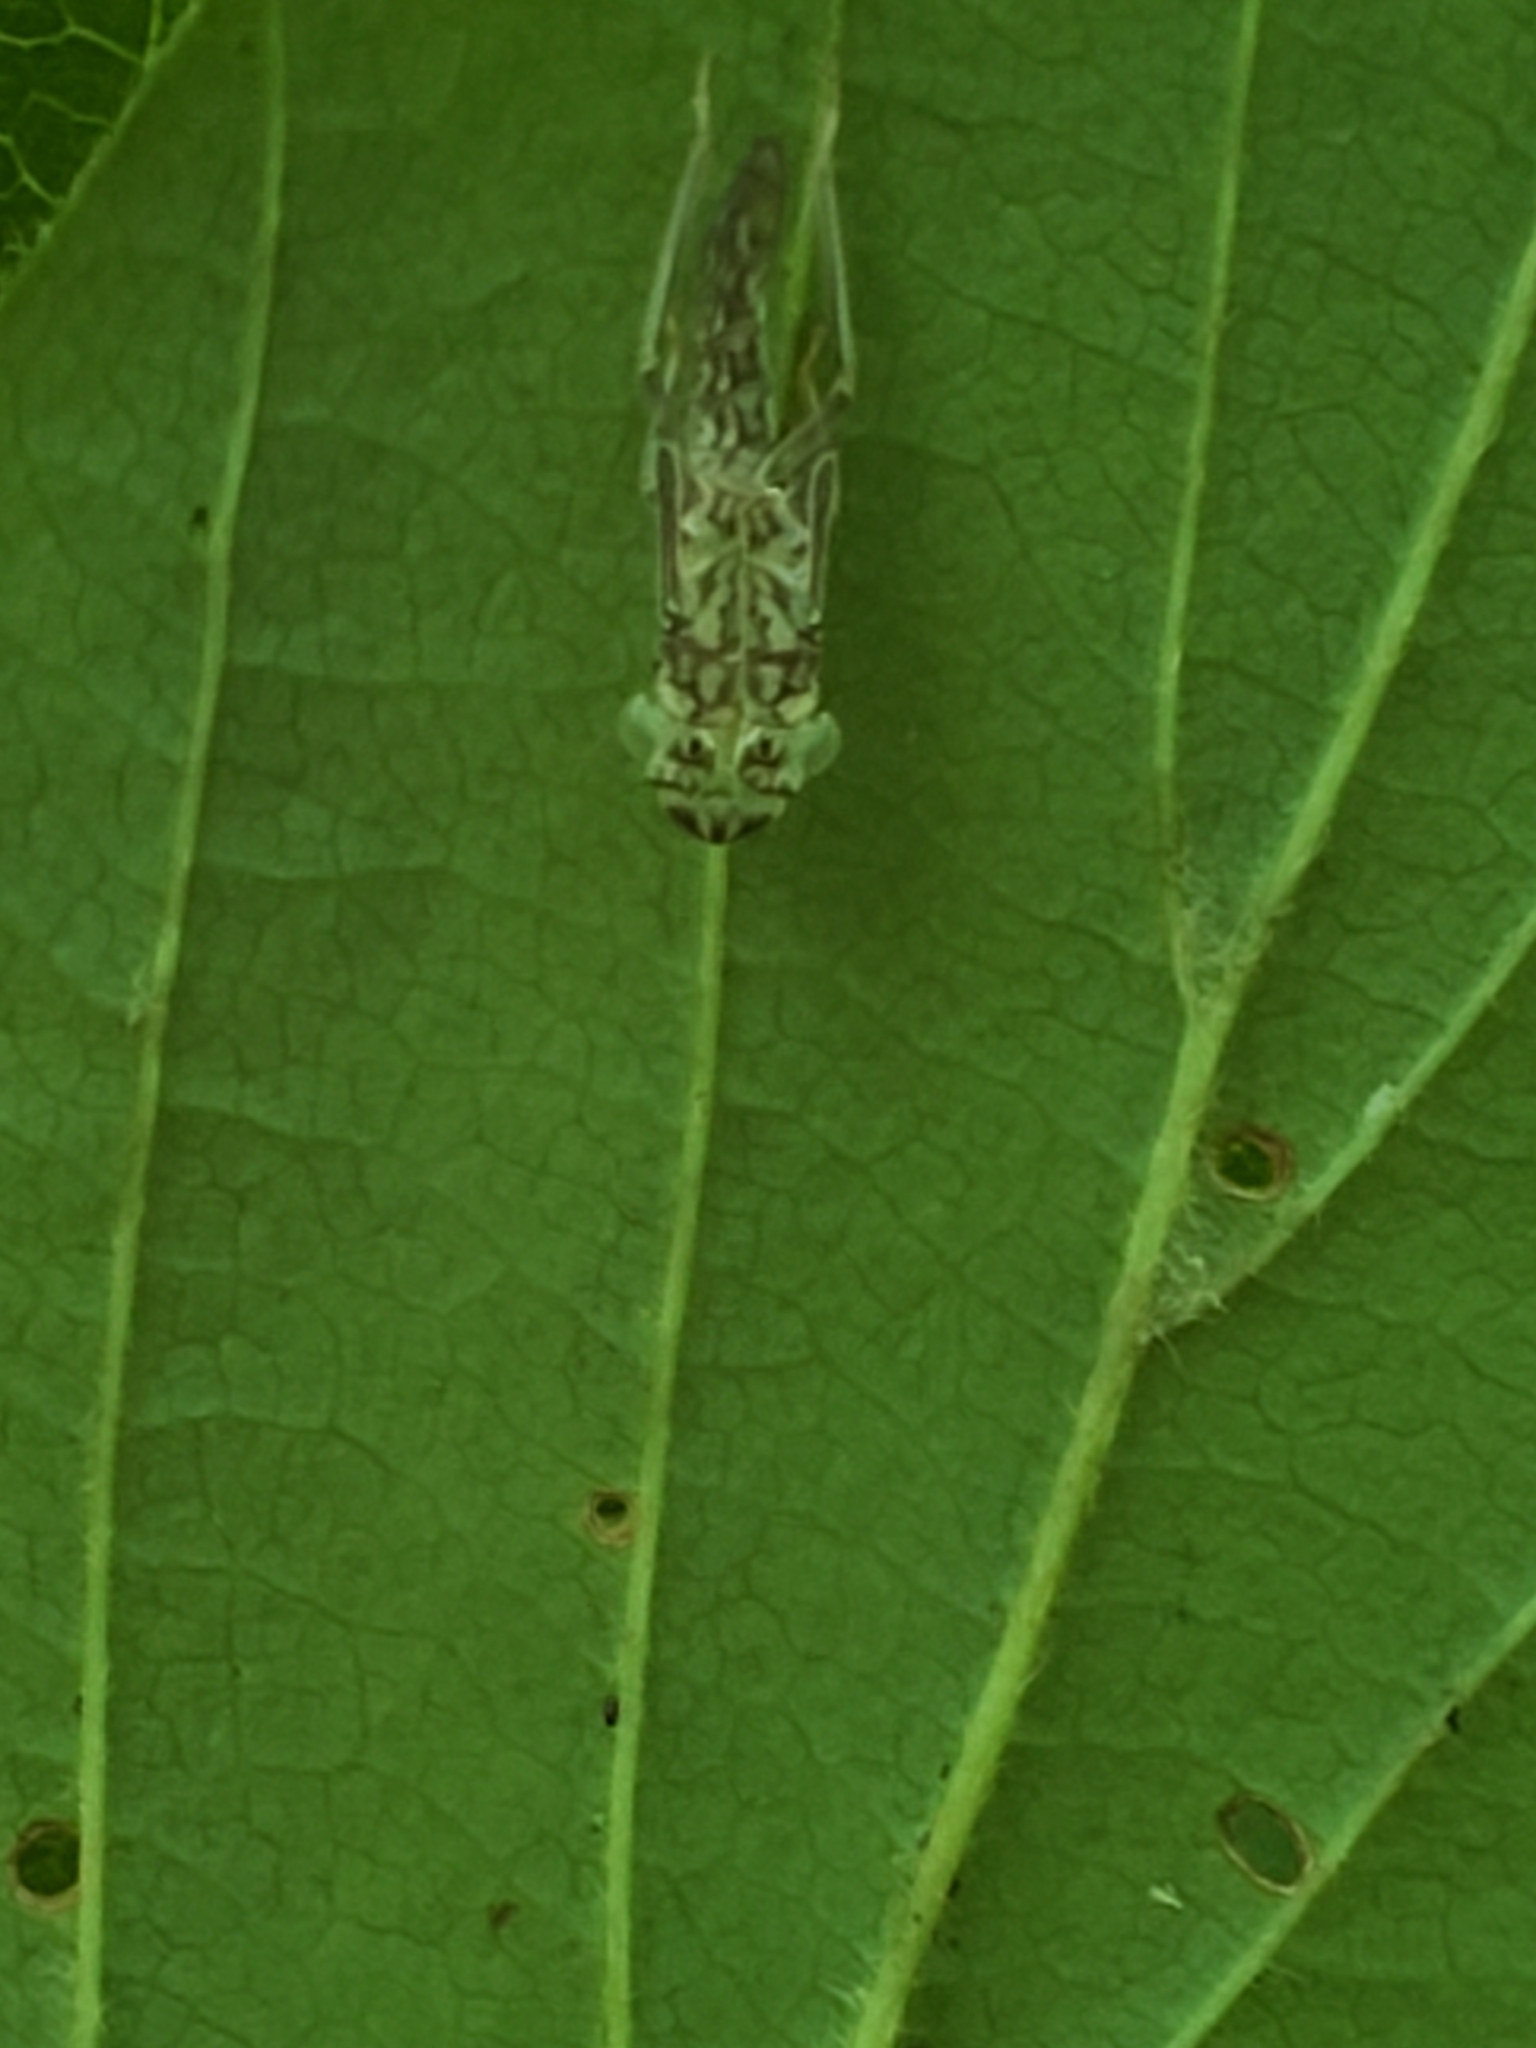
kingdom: Animalia
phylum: Arthropoda
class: Insecta
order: Hemiptera
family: Cicadellidae
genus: Oncometopia
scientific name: Oncometopia orbona
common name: Broad-headed sharpshooter
